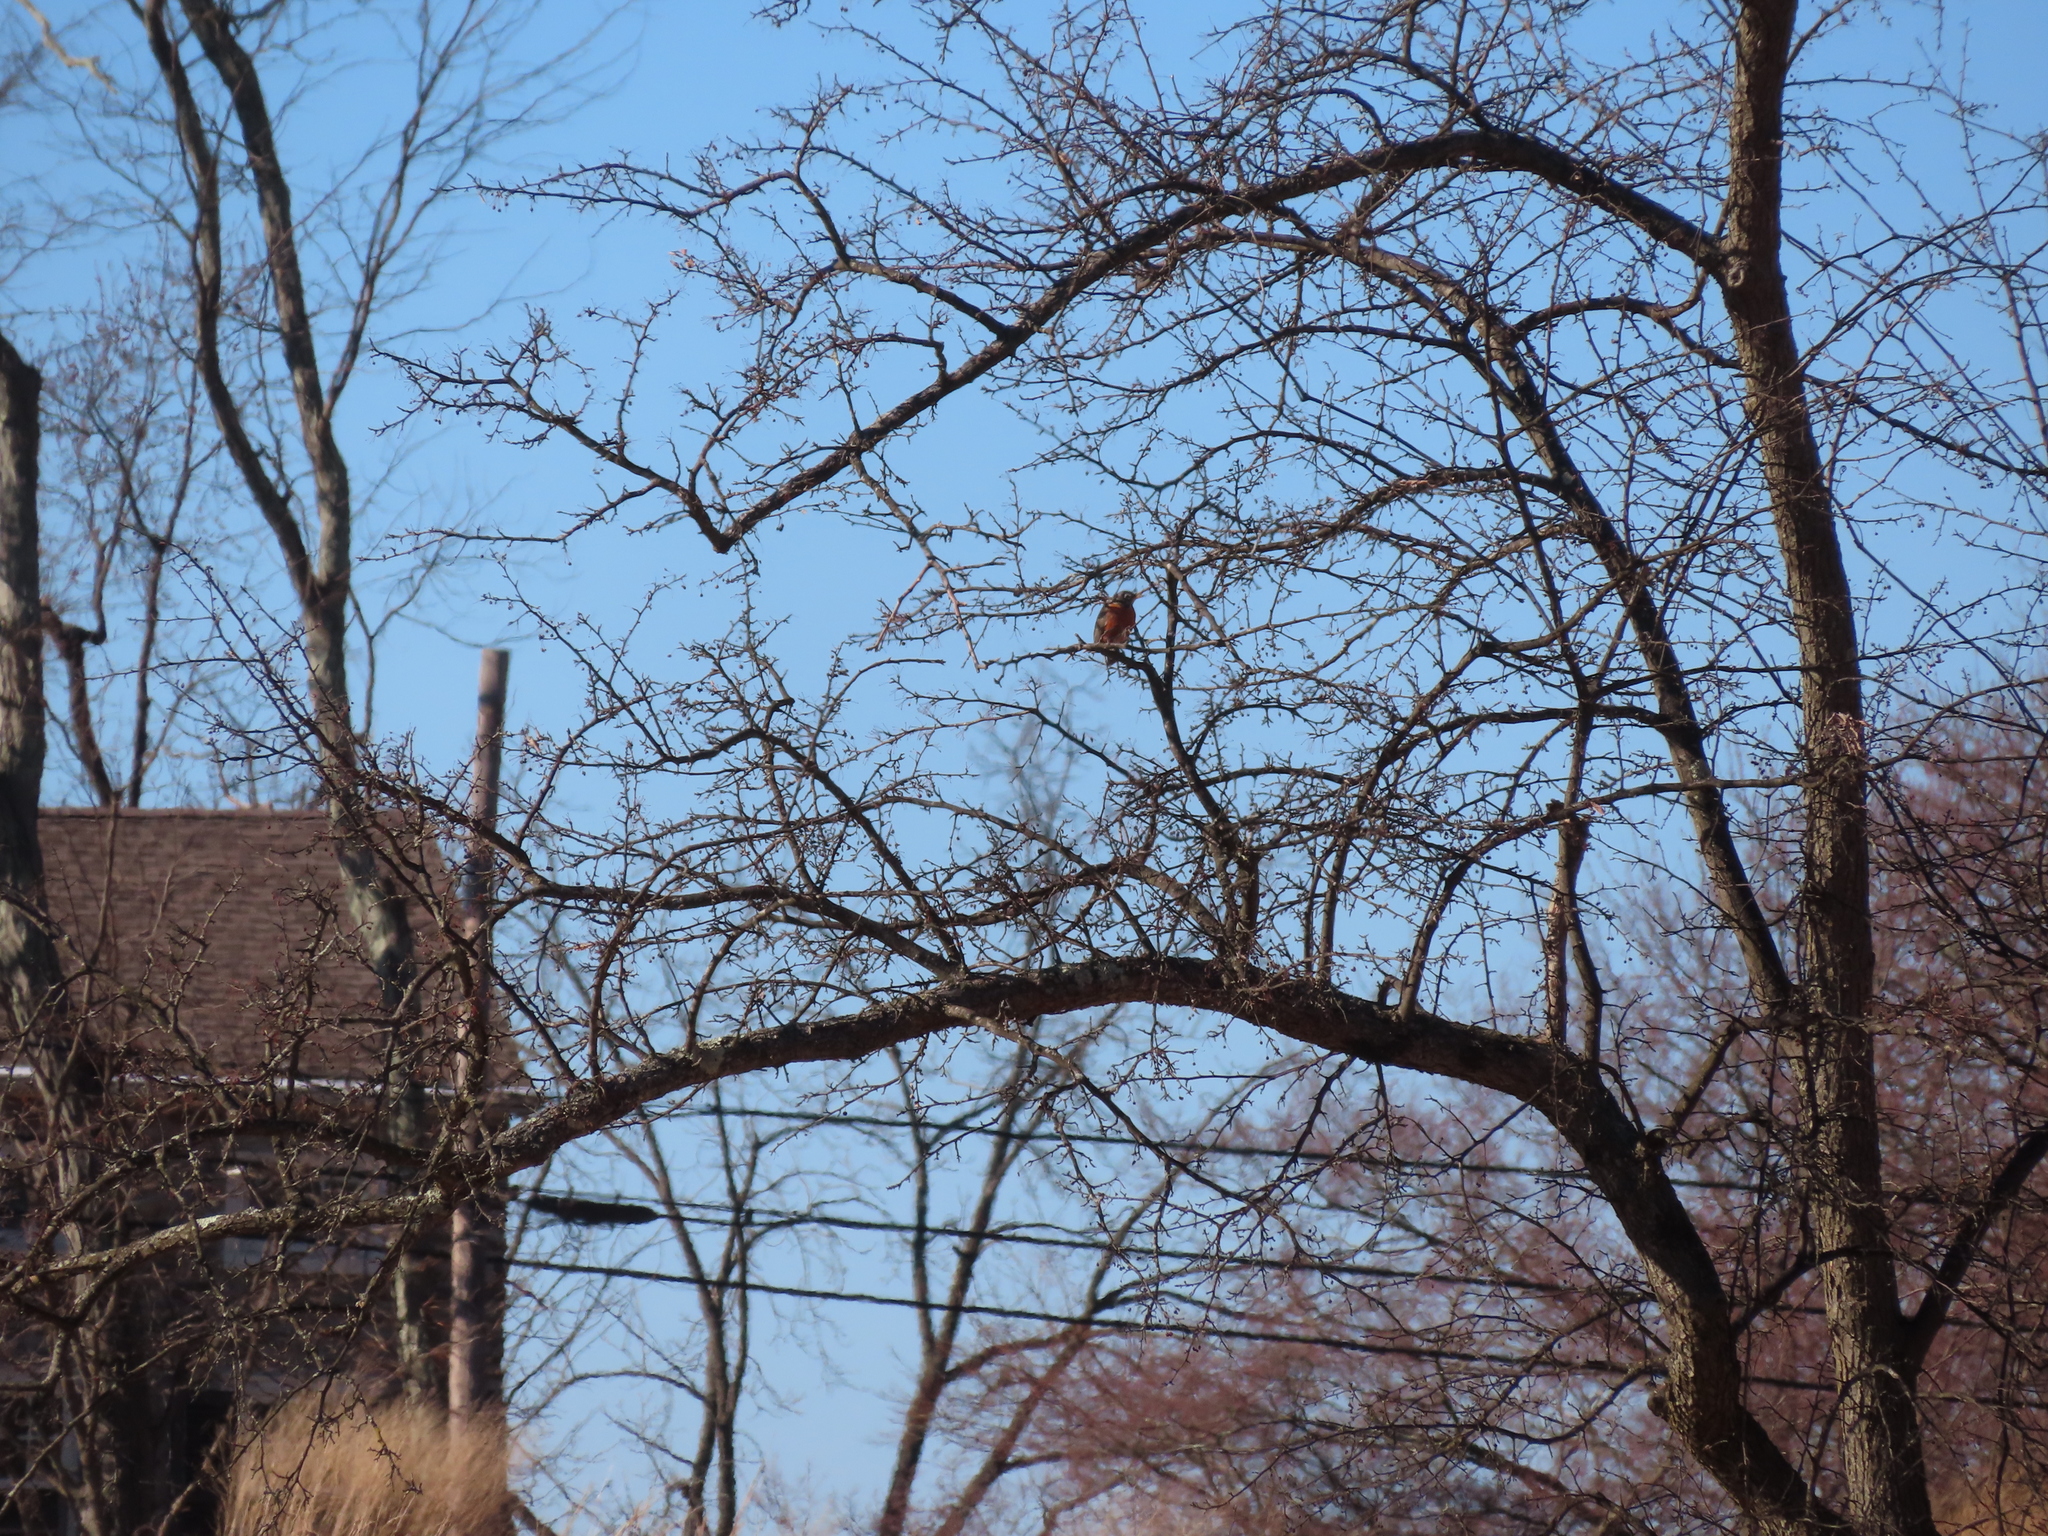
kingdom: Animalia
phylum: Chordata
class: Aves
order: Passeriformes
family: Turdidae
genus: Turdus
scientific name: Turdus migratorius
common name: American robin
